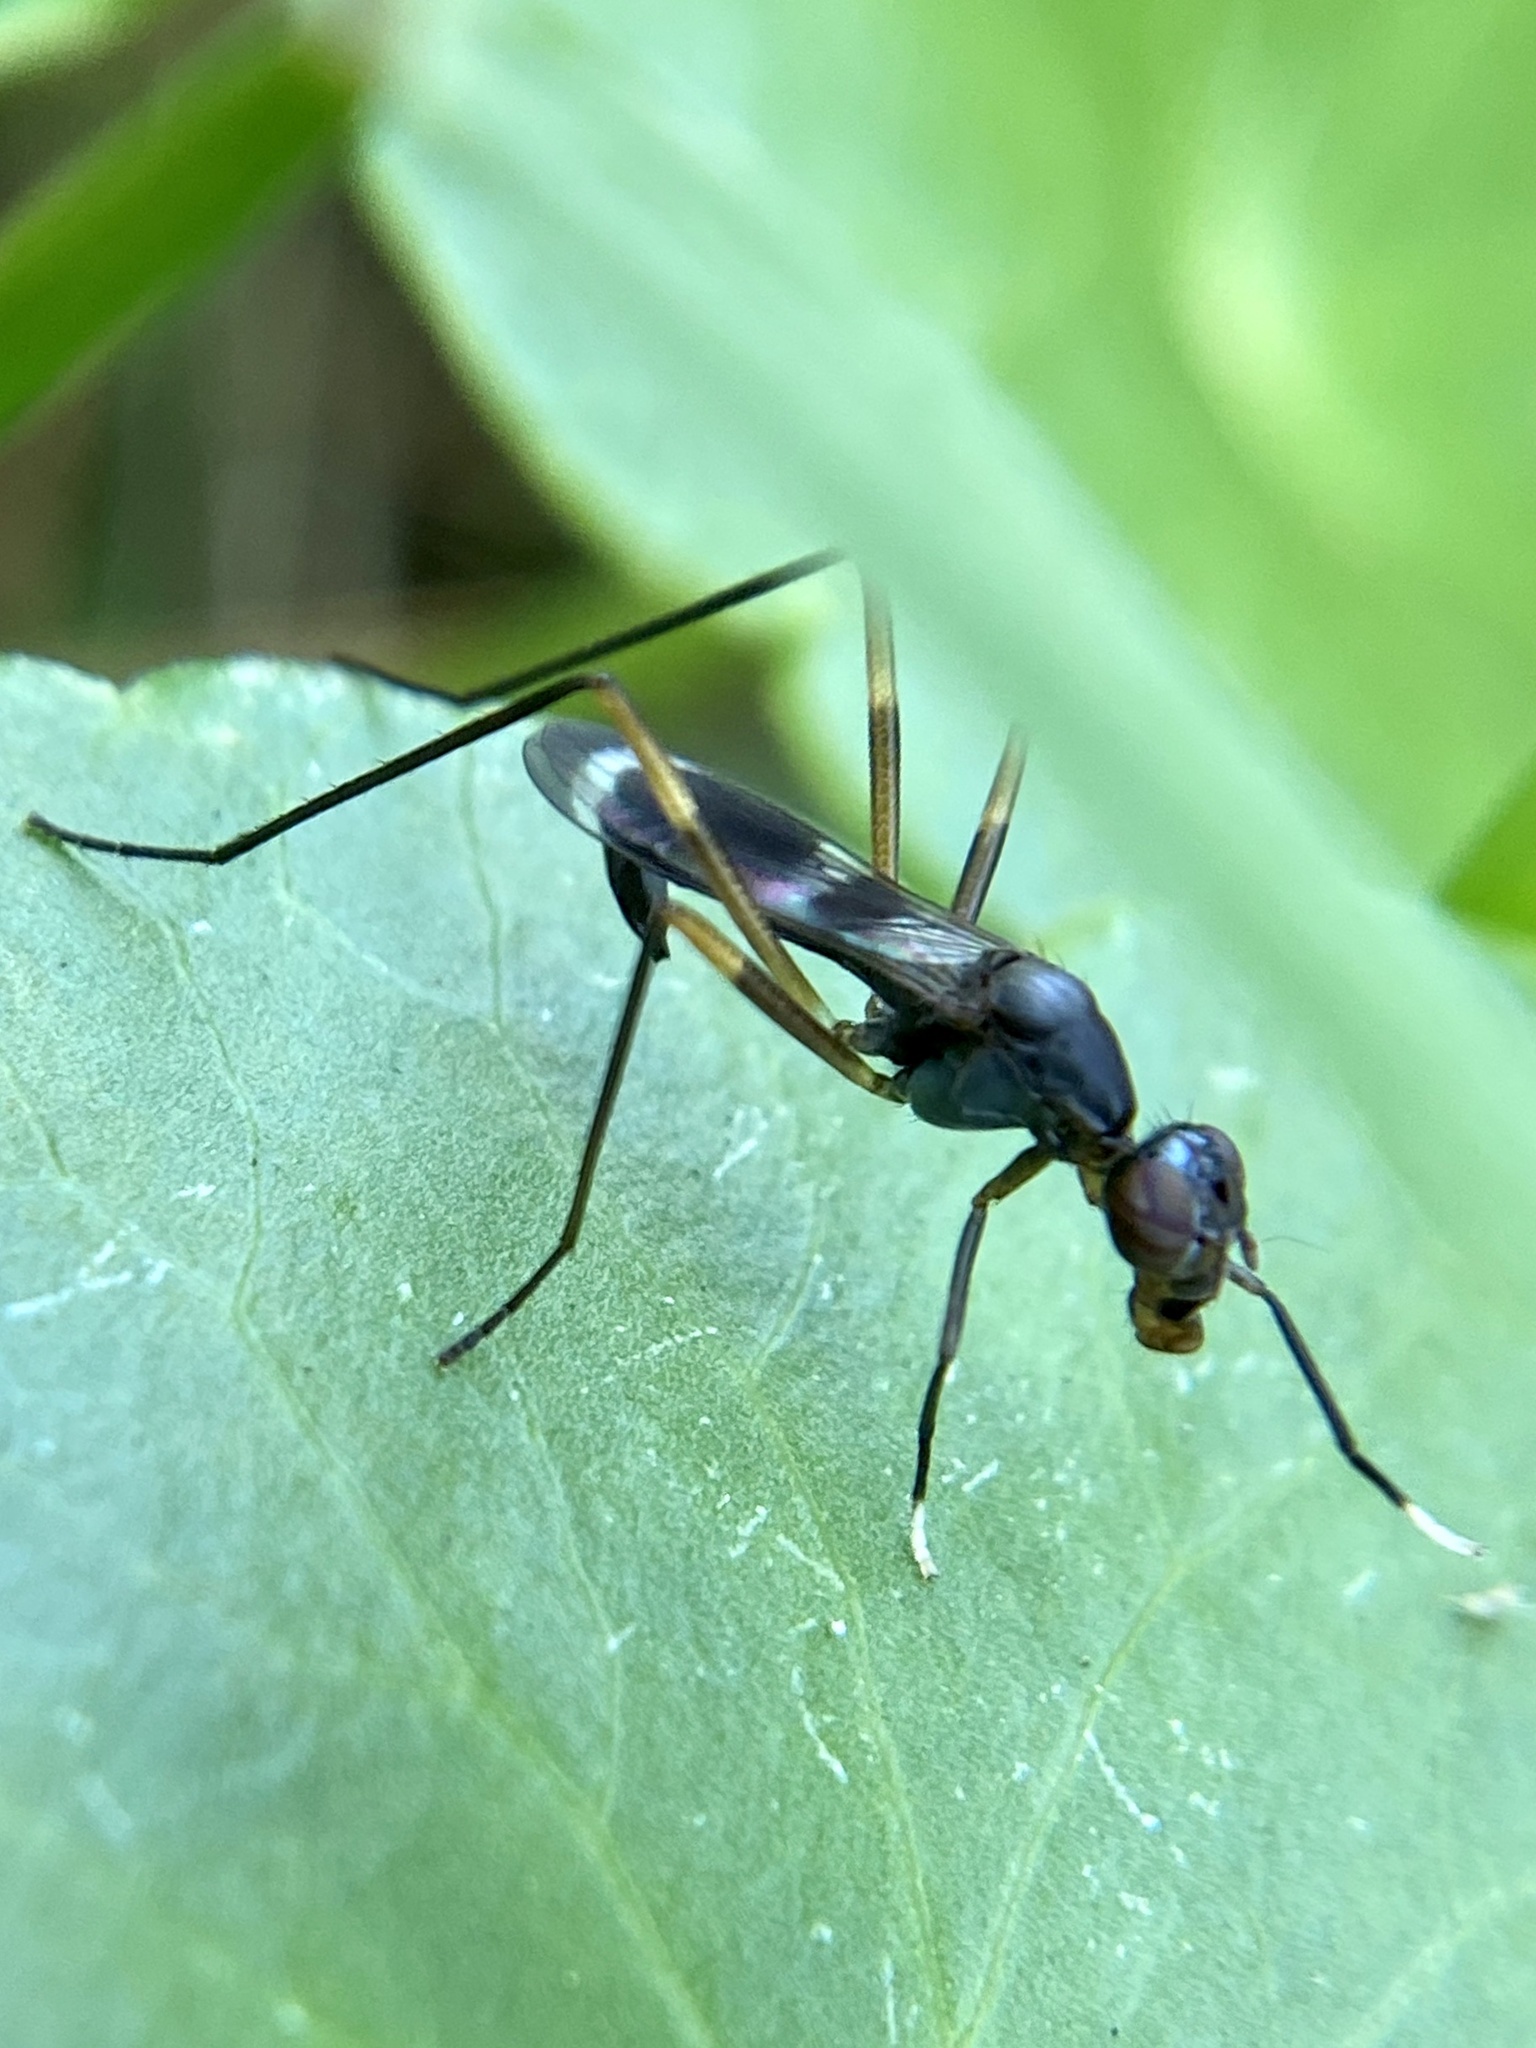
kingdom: Animalia
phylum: Arthropoda
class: Insecta
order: Diptera
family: Micropezidae
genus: Taeniaptera
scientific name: Taeniaptera trivittata
